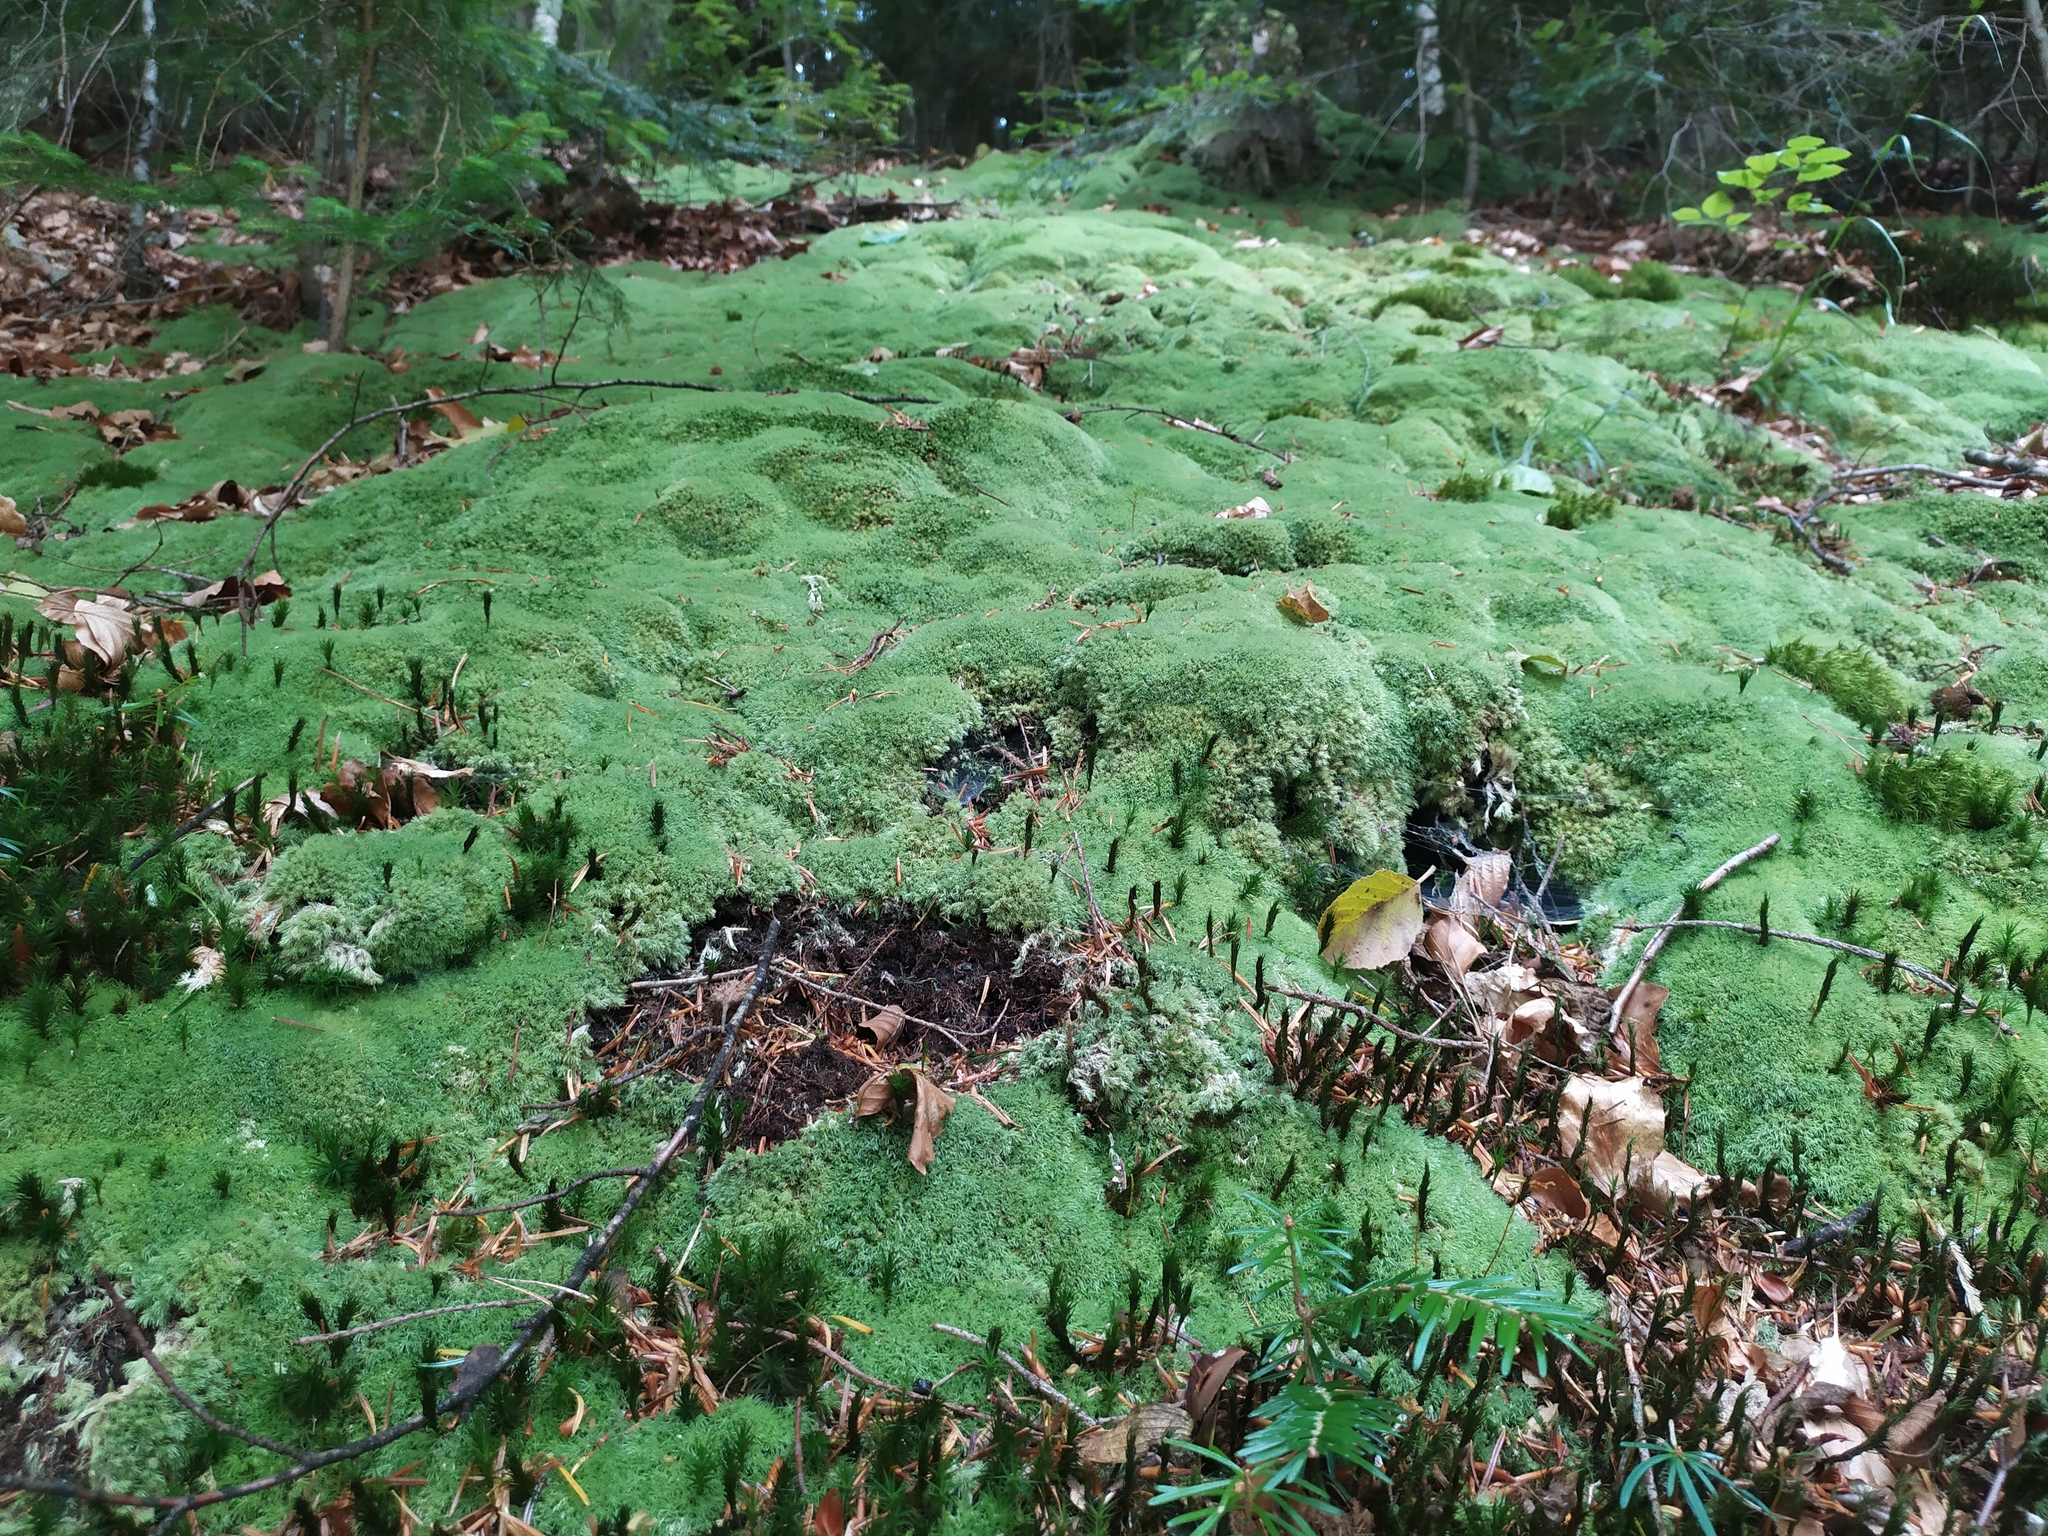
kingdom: Plantae
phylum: Bryophyta
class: Bryopsida
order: Dicranales
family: Leucobryaceae
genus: Leucobryum
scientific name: Leucobryum glaucum
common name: Large white-moss
